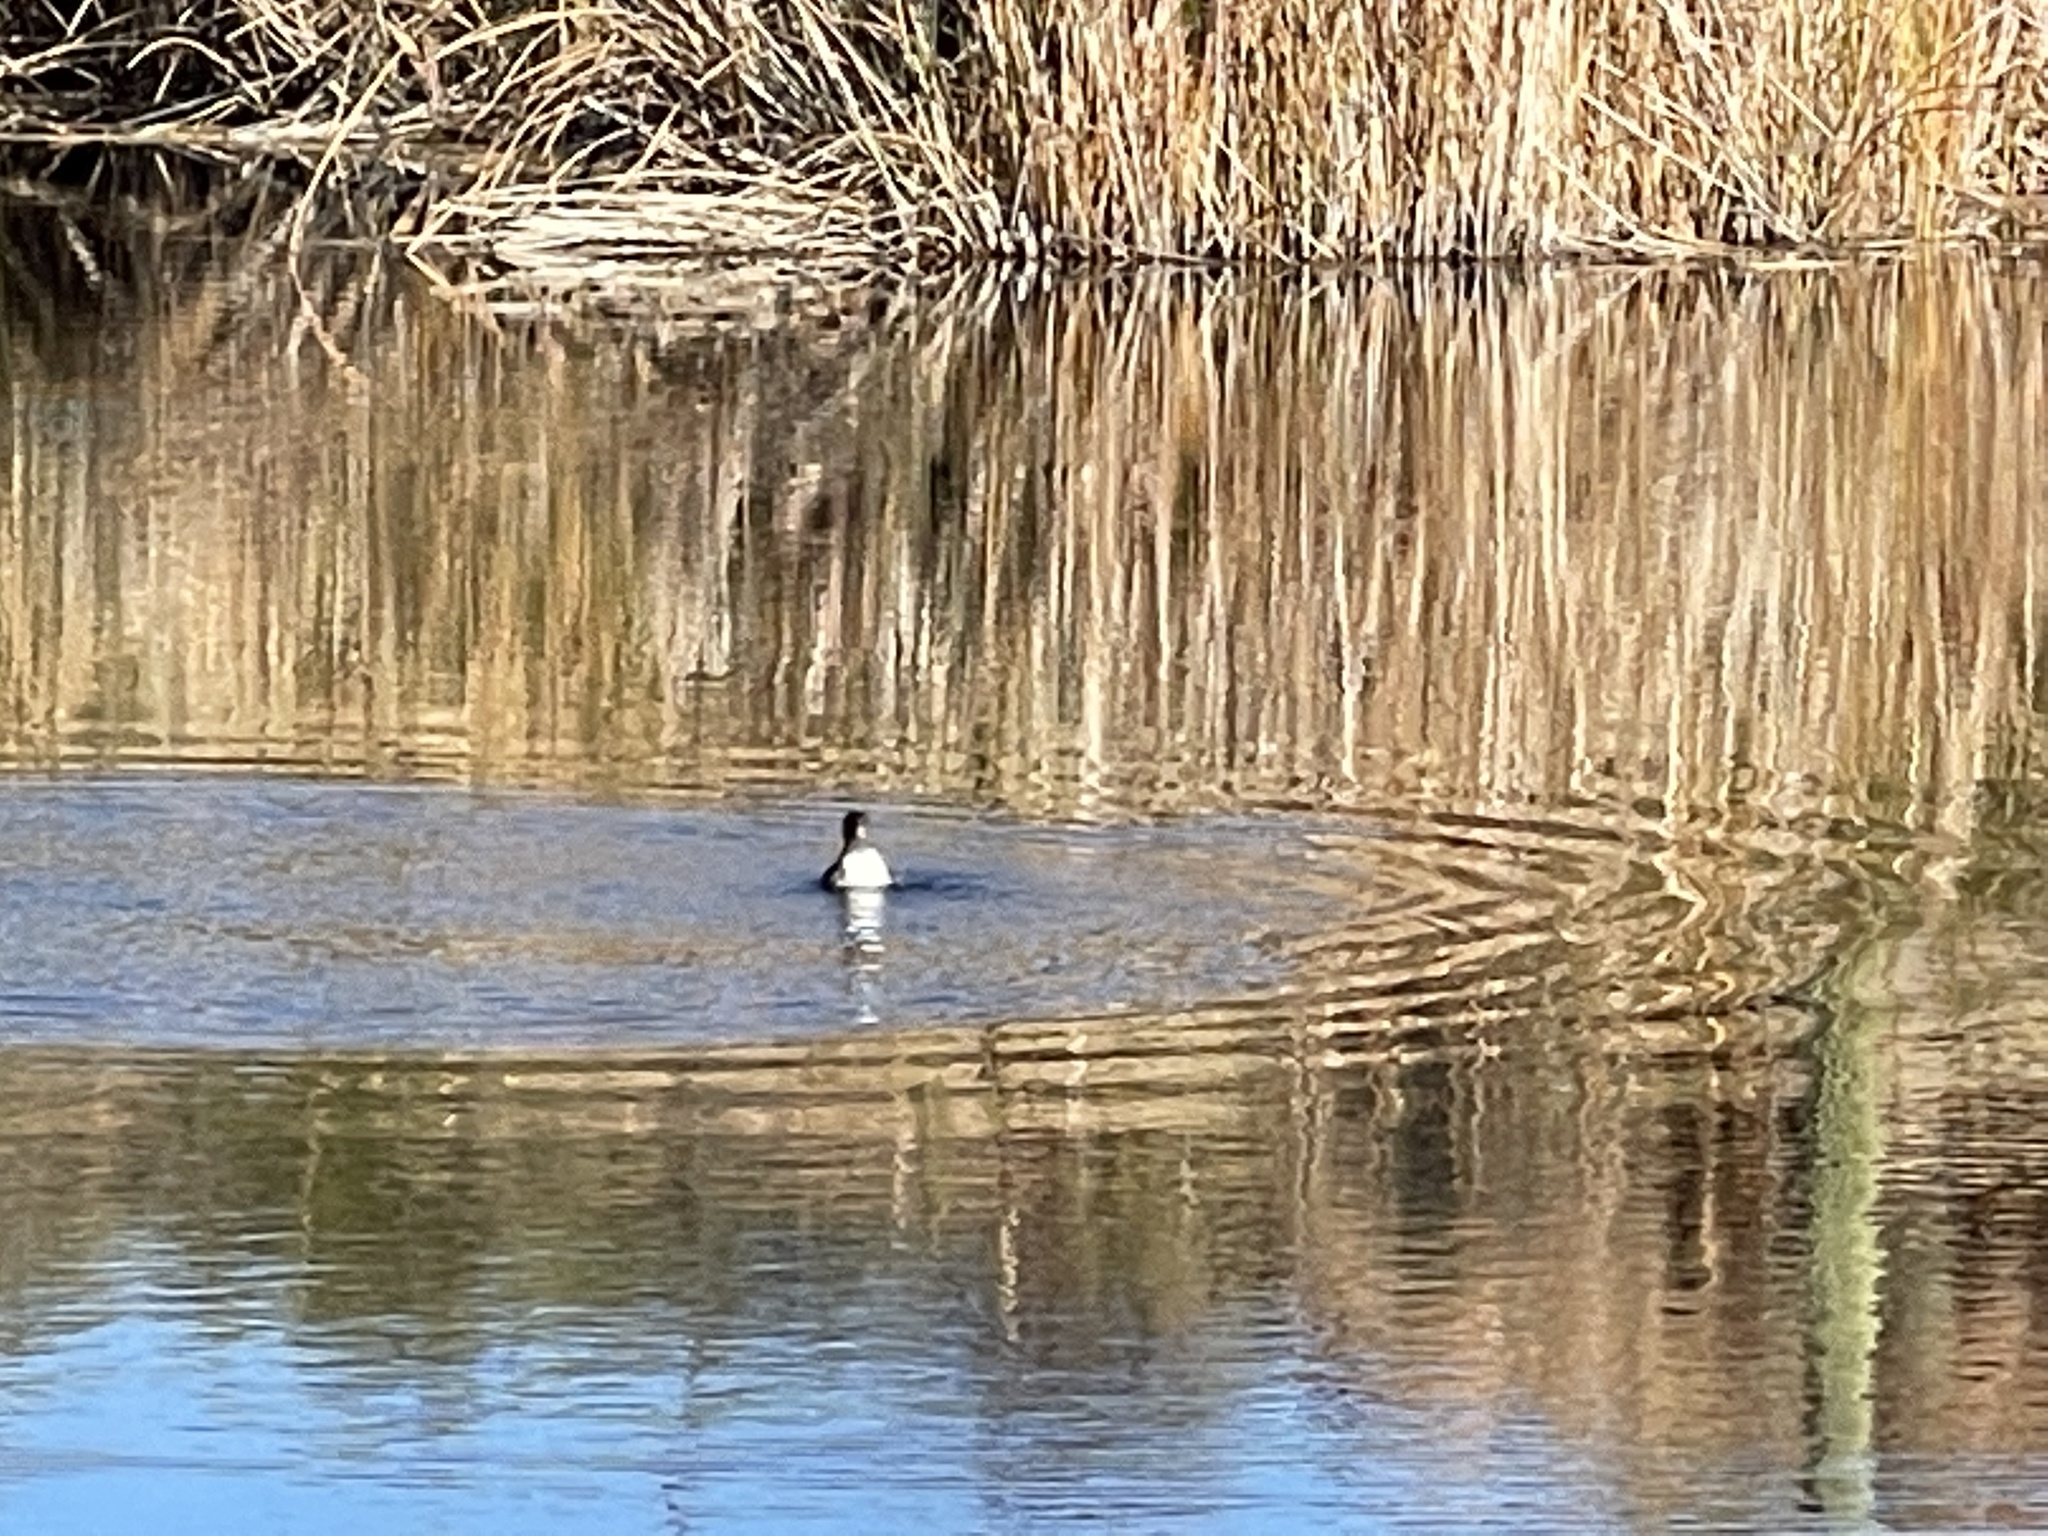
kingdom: Animalia
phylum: Chordata
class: Aves
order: Podicipediformes
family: Podicipedidae
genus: Podilymbus
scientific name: Podilymbus podiceps
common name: Pied-billed grebe
